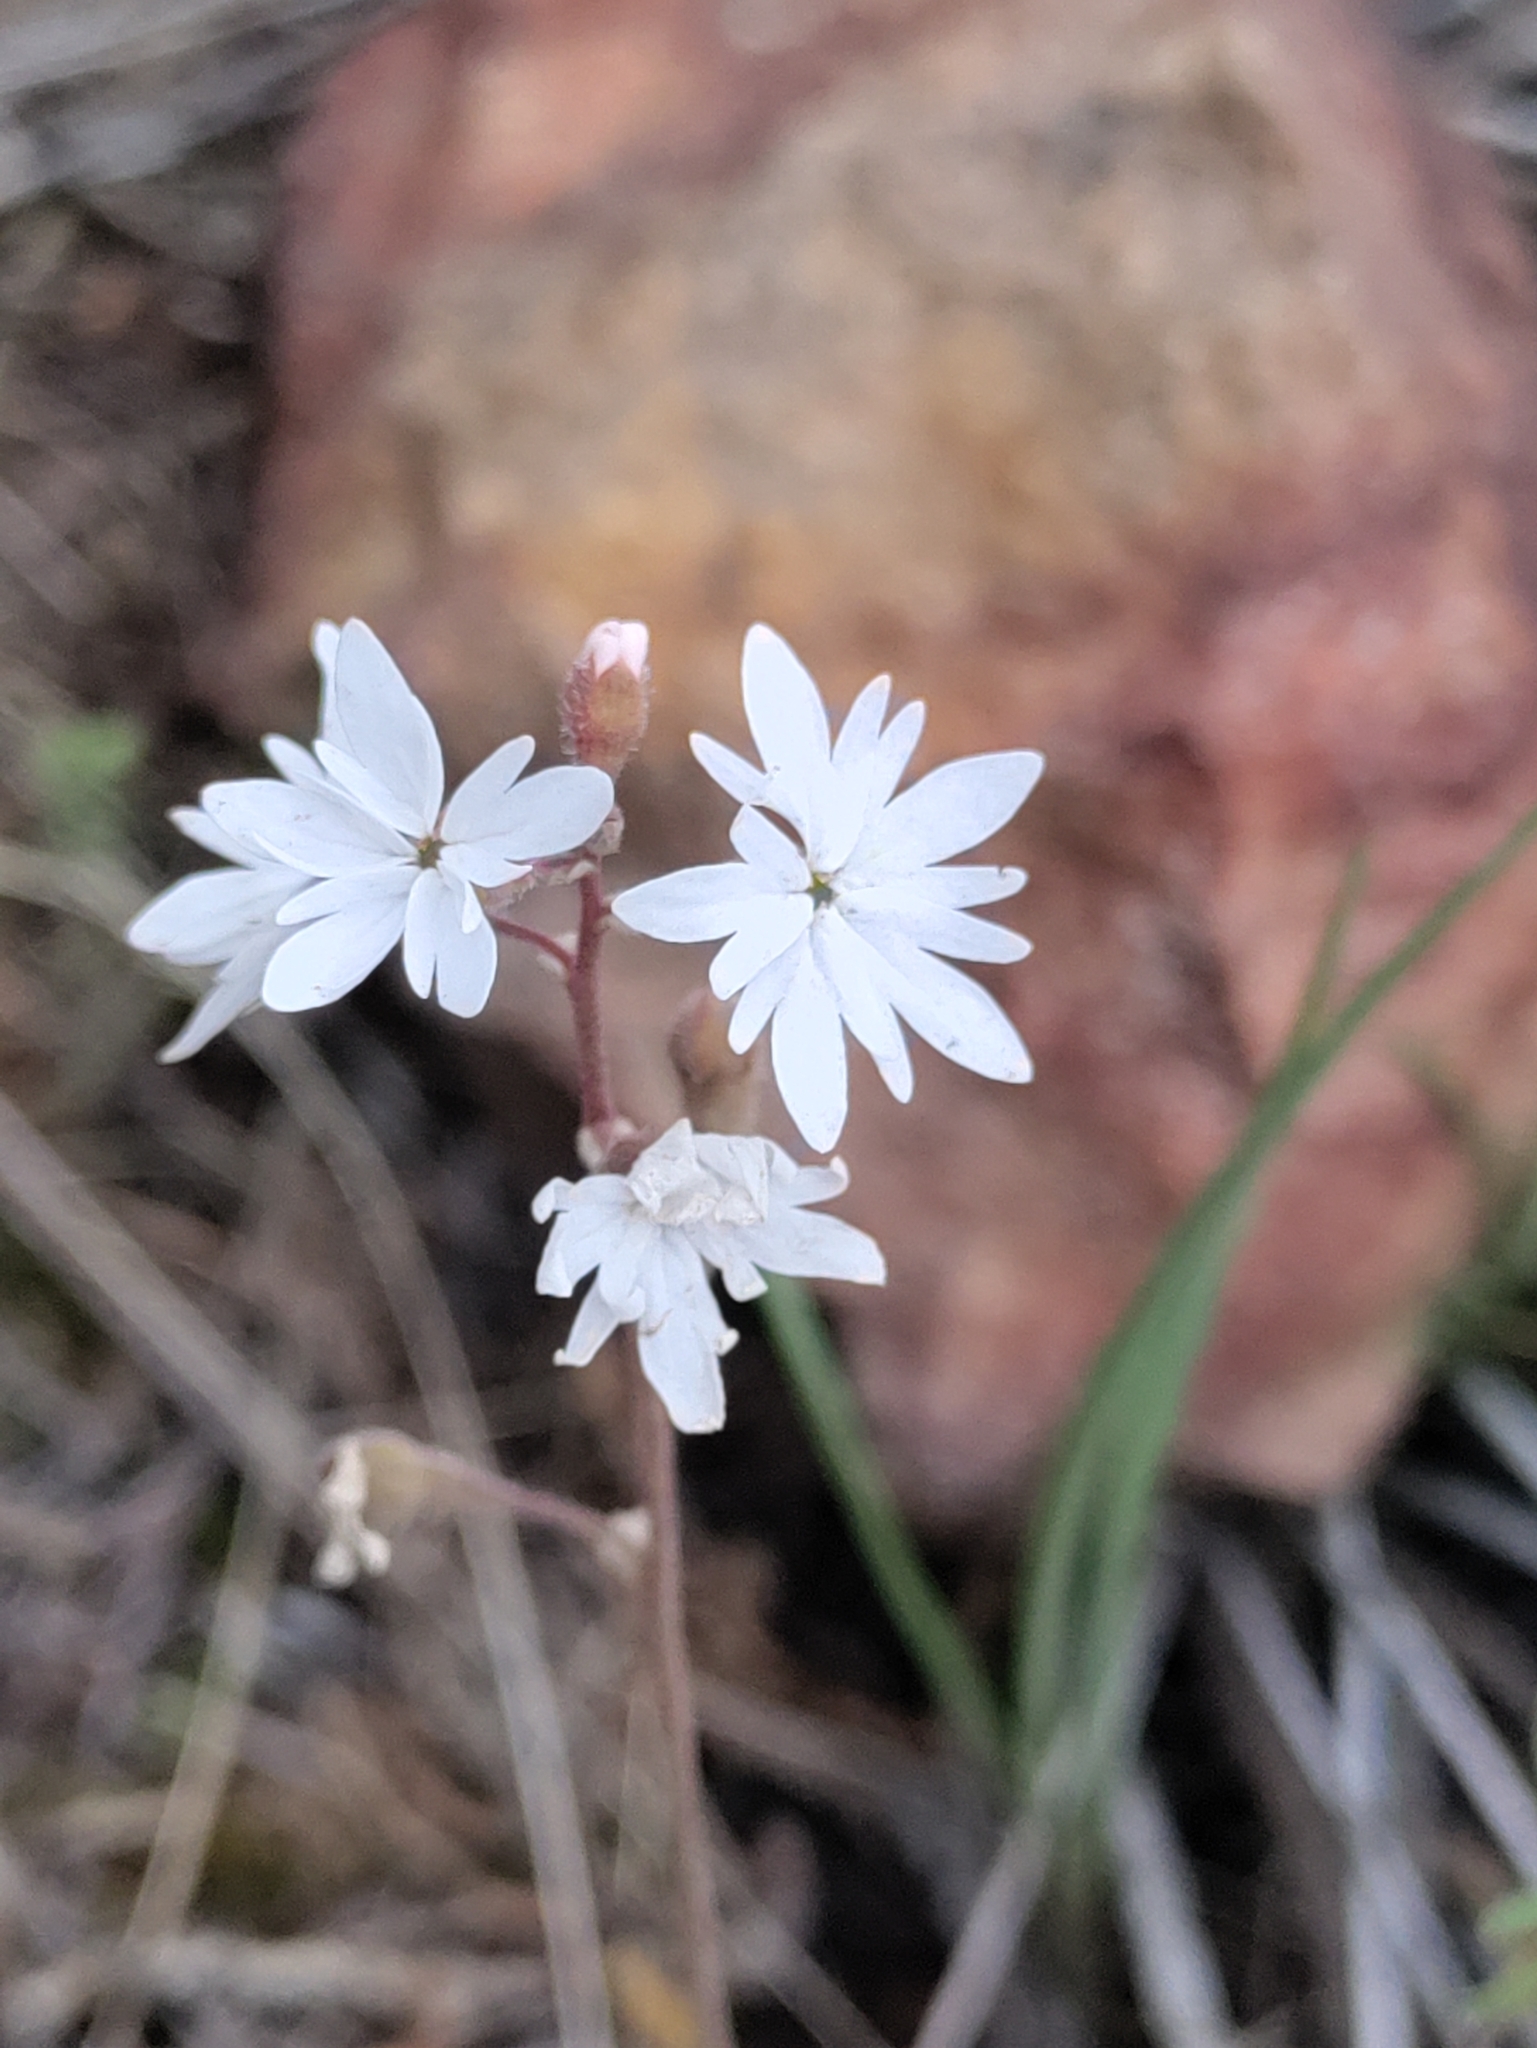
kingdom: Plantae
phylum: Tracheophyta
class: Magnoliopsida
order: Saxifragales
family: Saxifragaceae
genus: Lithophragma
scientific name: Lithophragma parviflorum
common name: Small-flowered fringe-cup
